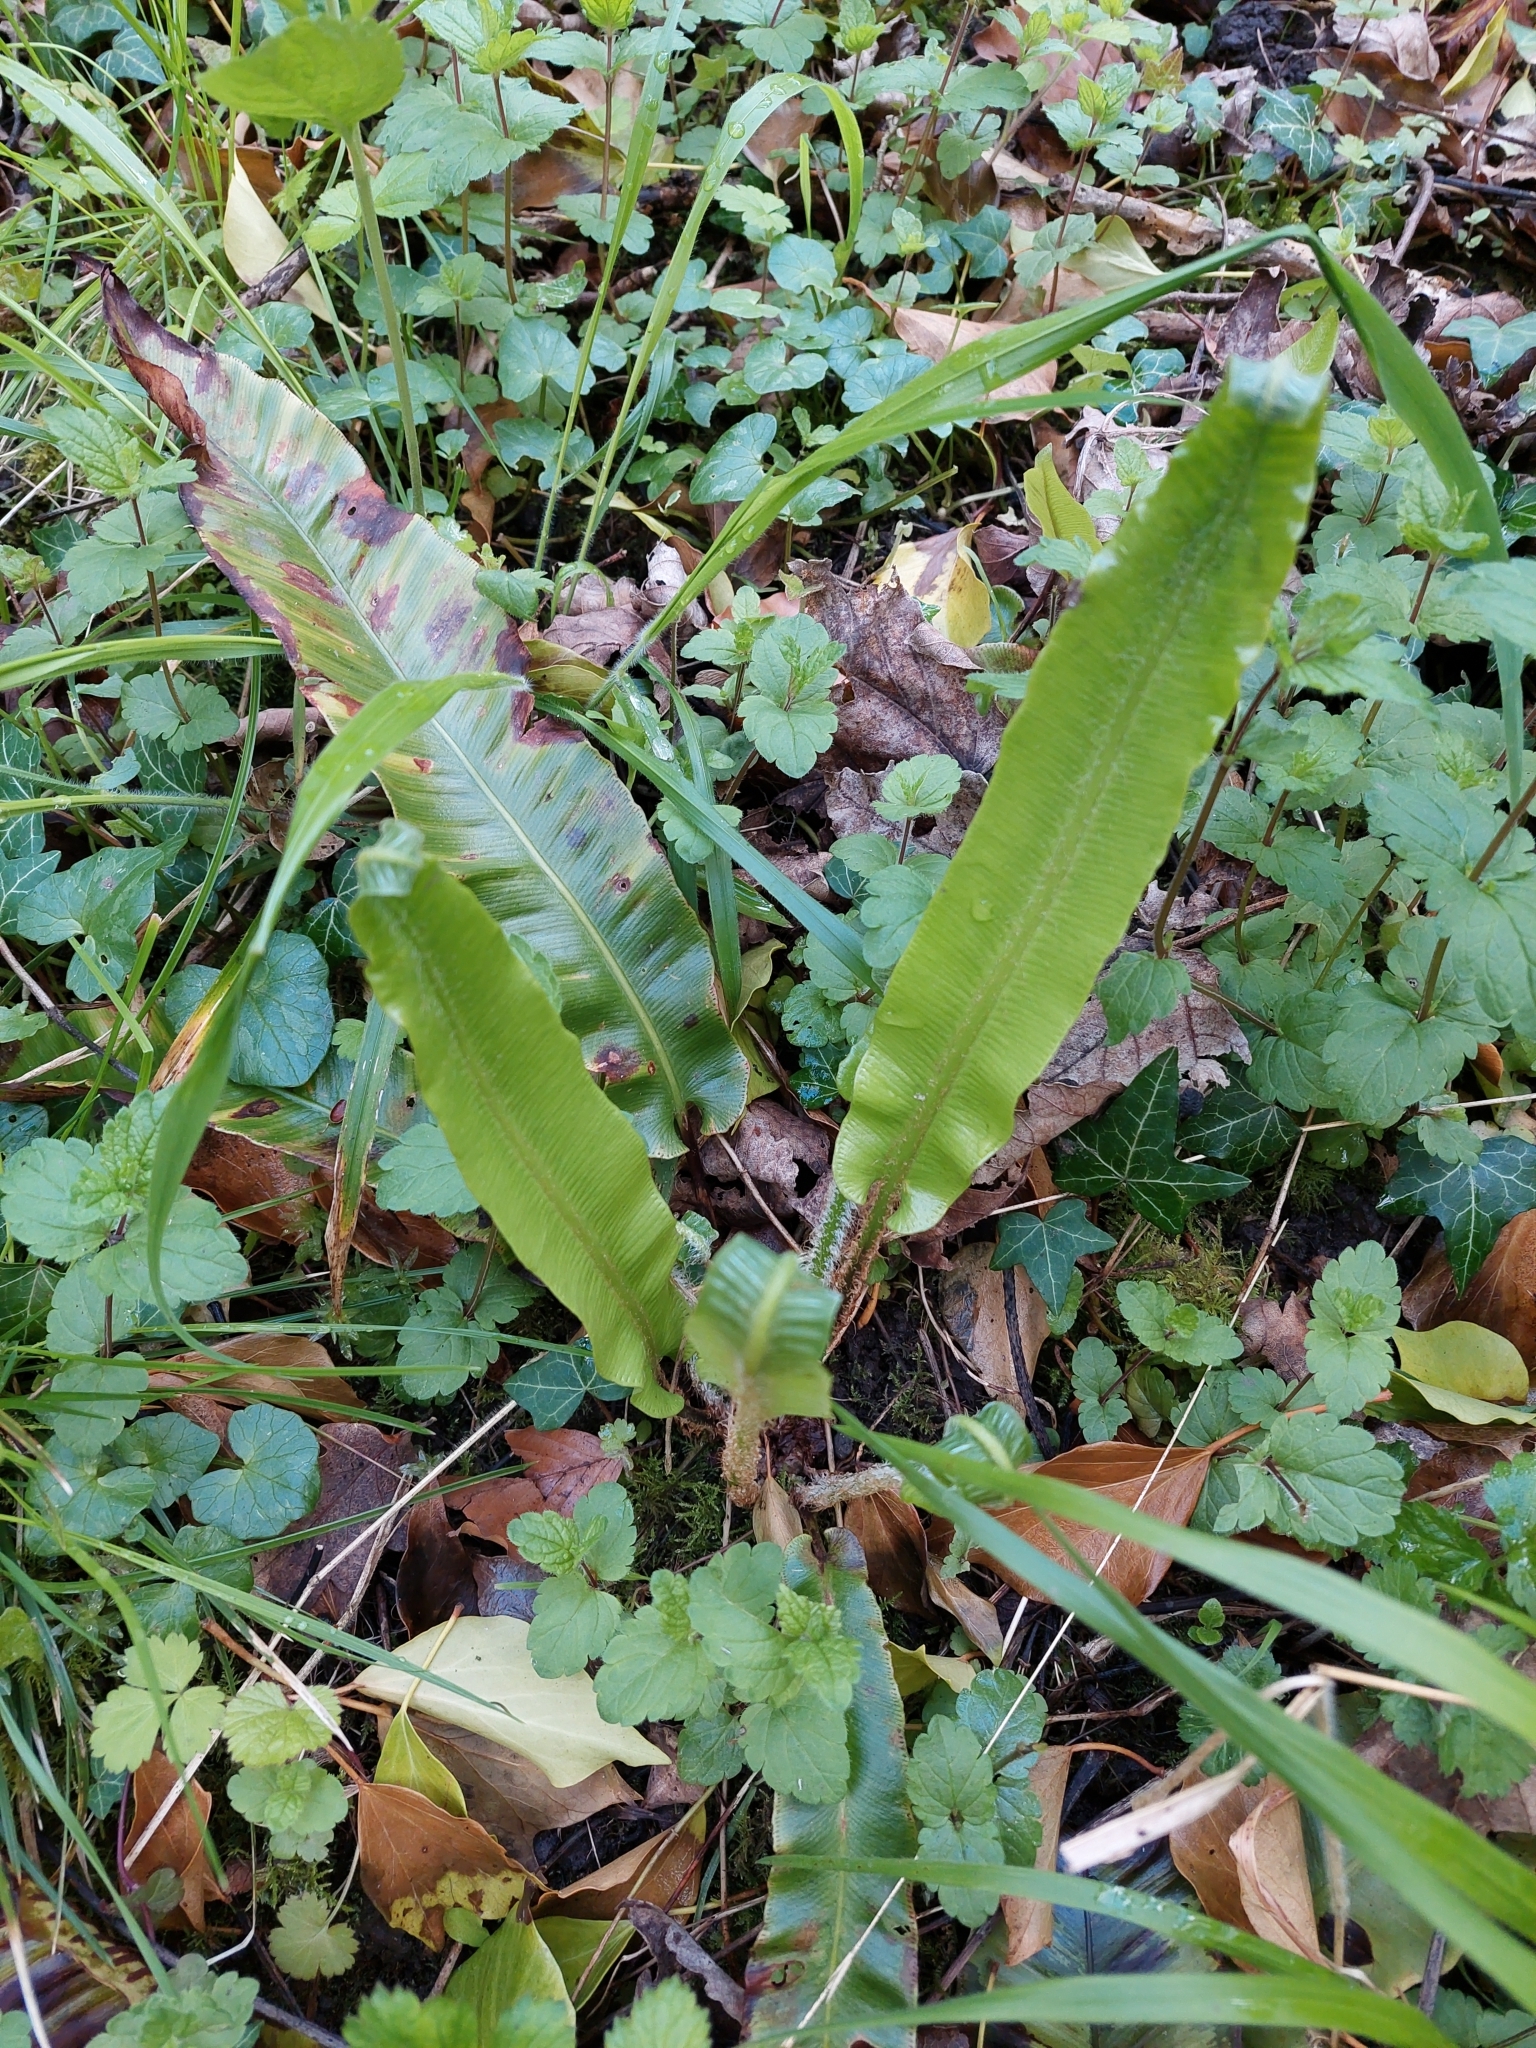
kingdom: Plantae
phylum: Tracheophyta
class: Polypodiopsida
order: Polypodiales
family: Aspleniaceae
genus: Asplenium
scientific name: Asplenium scolopendrium
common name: Hart's-tongue fern
